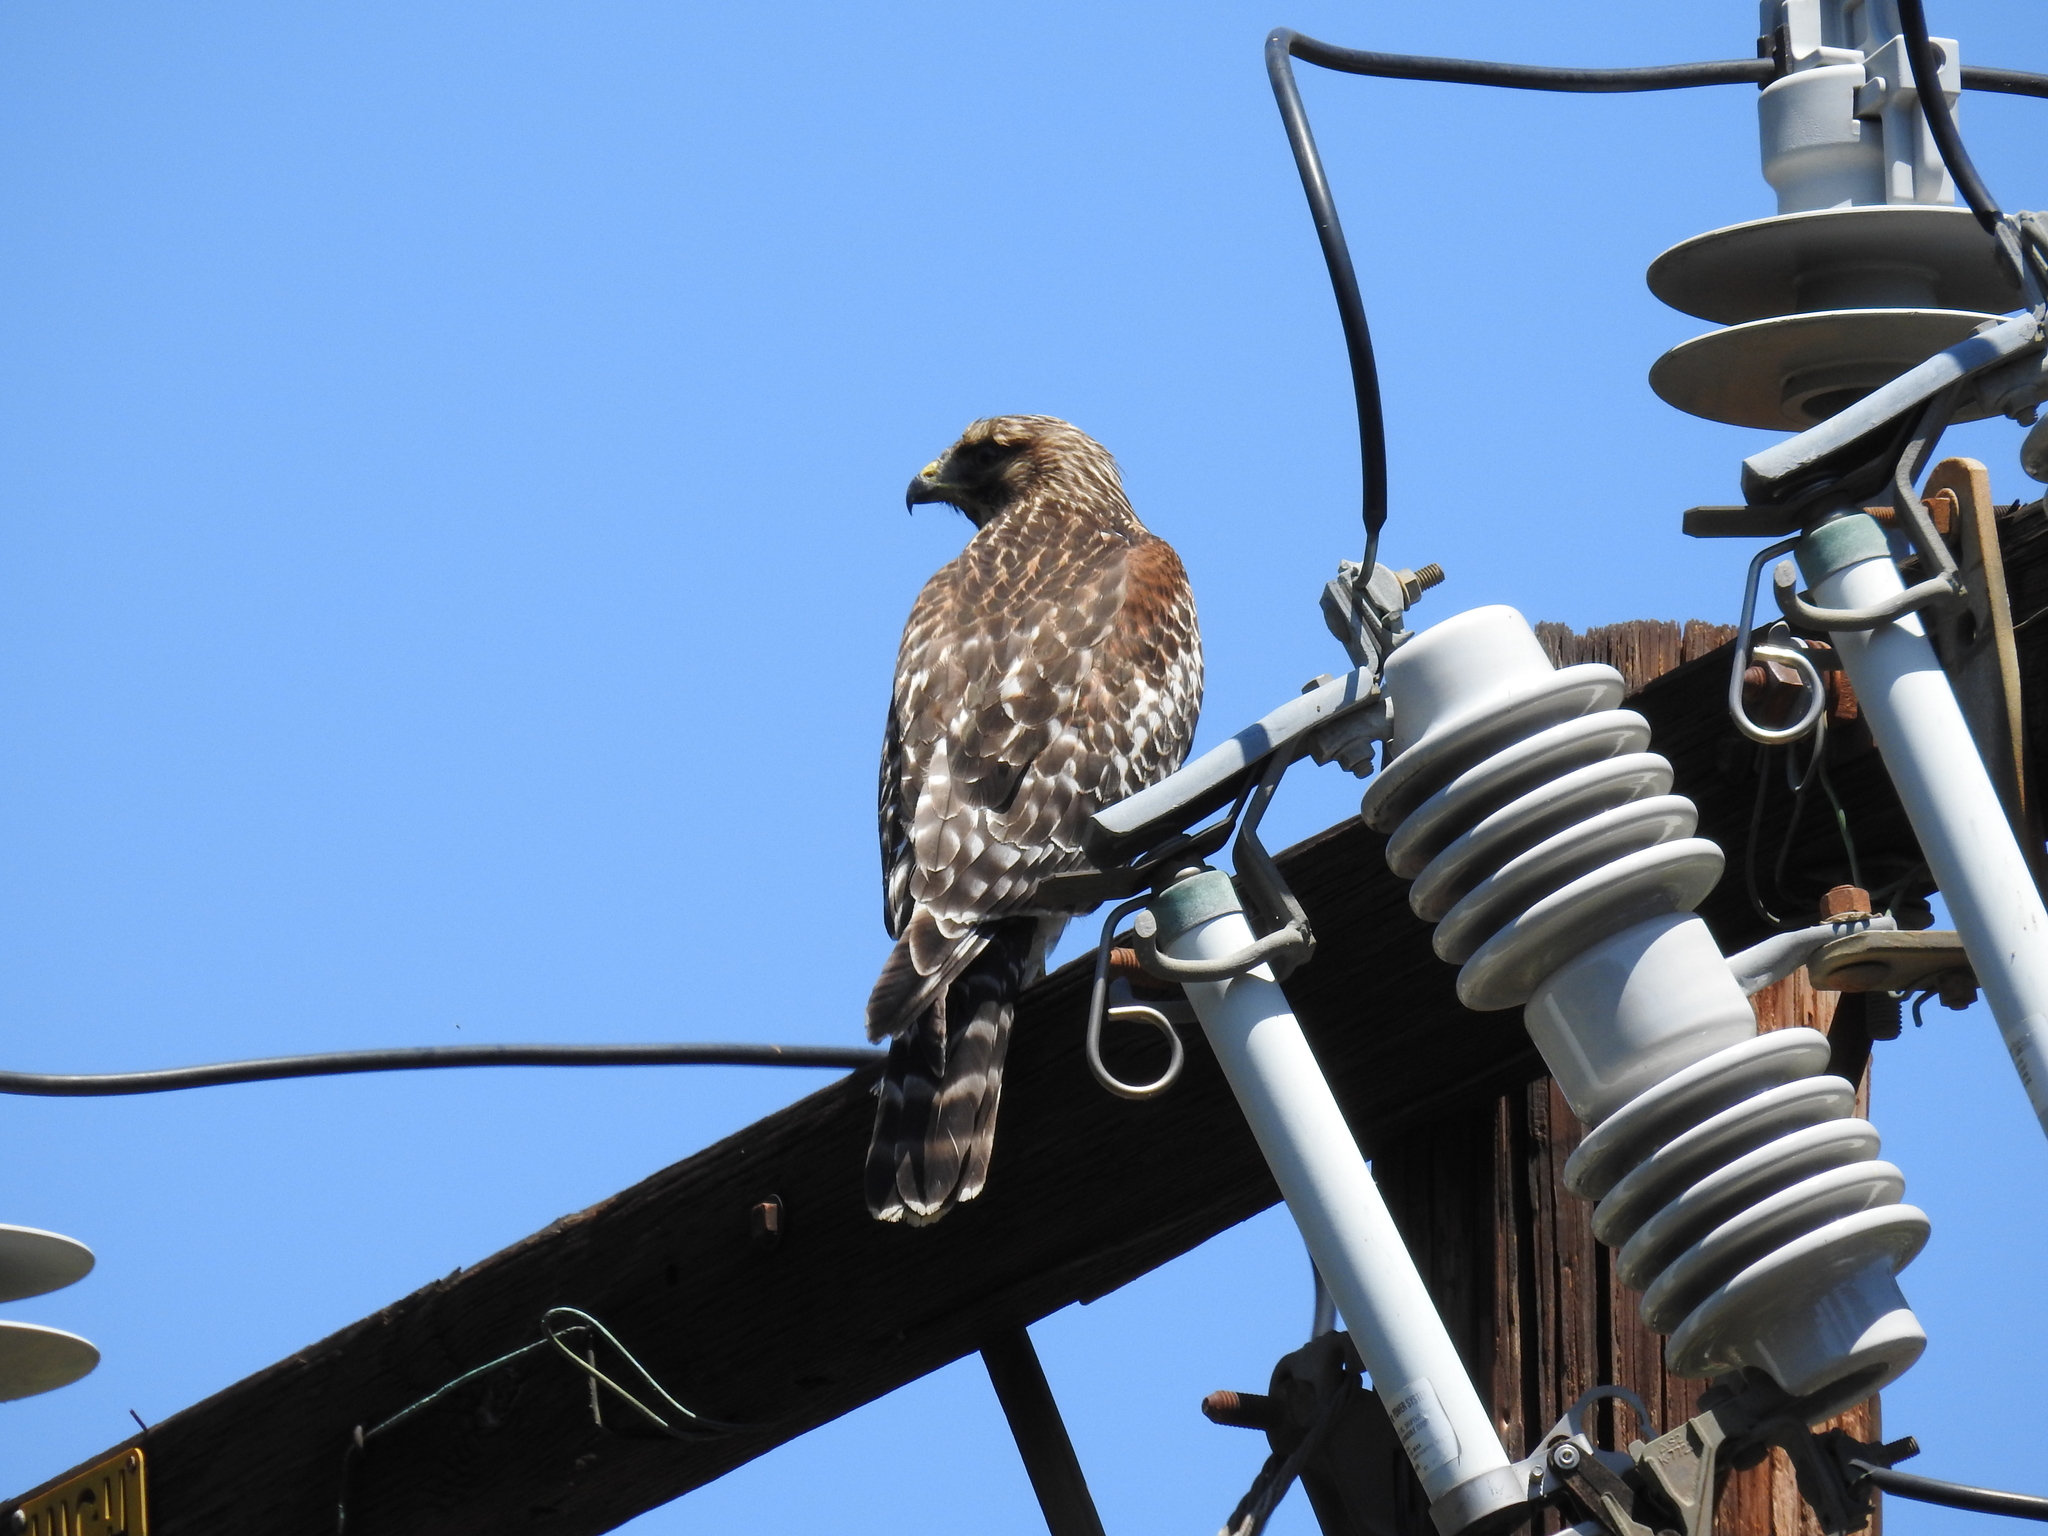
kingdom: Animalia
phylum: Chordata
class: Aves
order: Accipitriformes
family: Accipitridae
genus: Buteo
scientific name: Buteo lineatus
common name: Red-shouldered hawk
